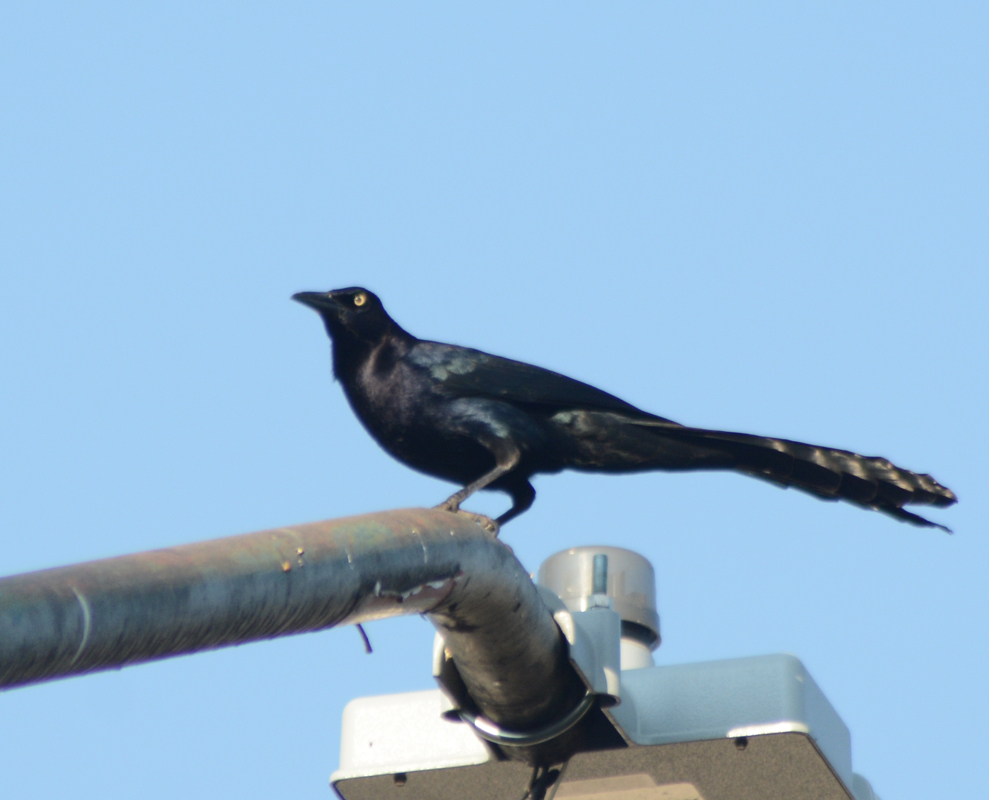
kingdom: Animalia
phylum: Chordata
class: Aves
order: Passeriformes
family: Icteridae
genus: Quiscalus
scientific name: Quiscalus mexicanus
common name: Great-tailed grackle
